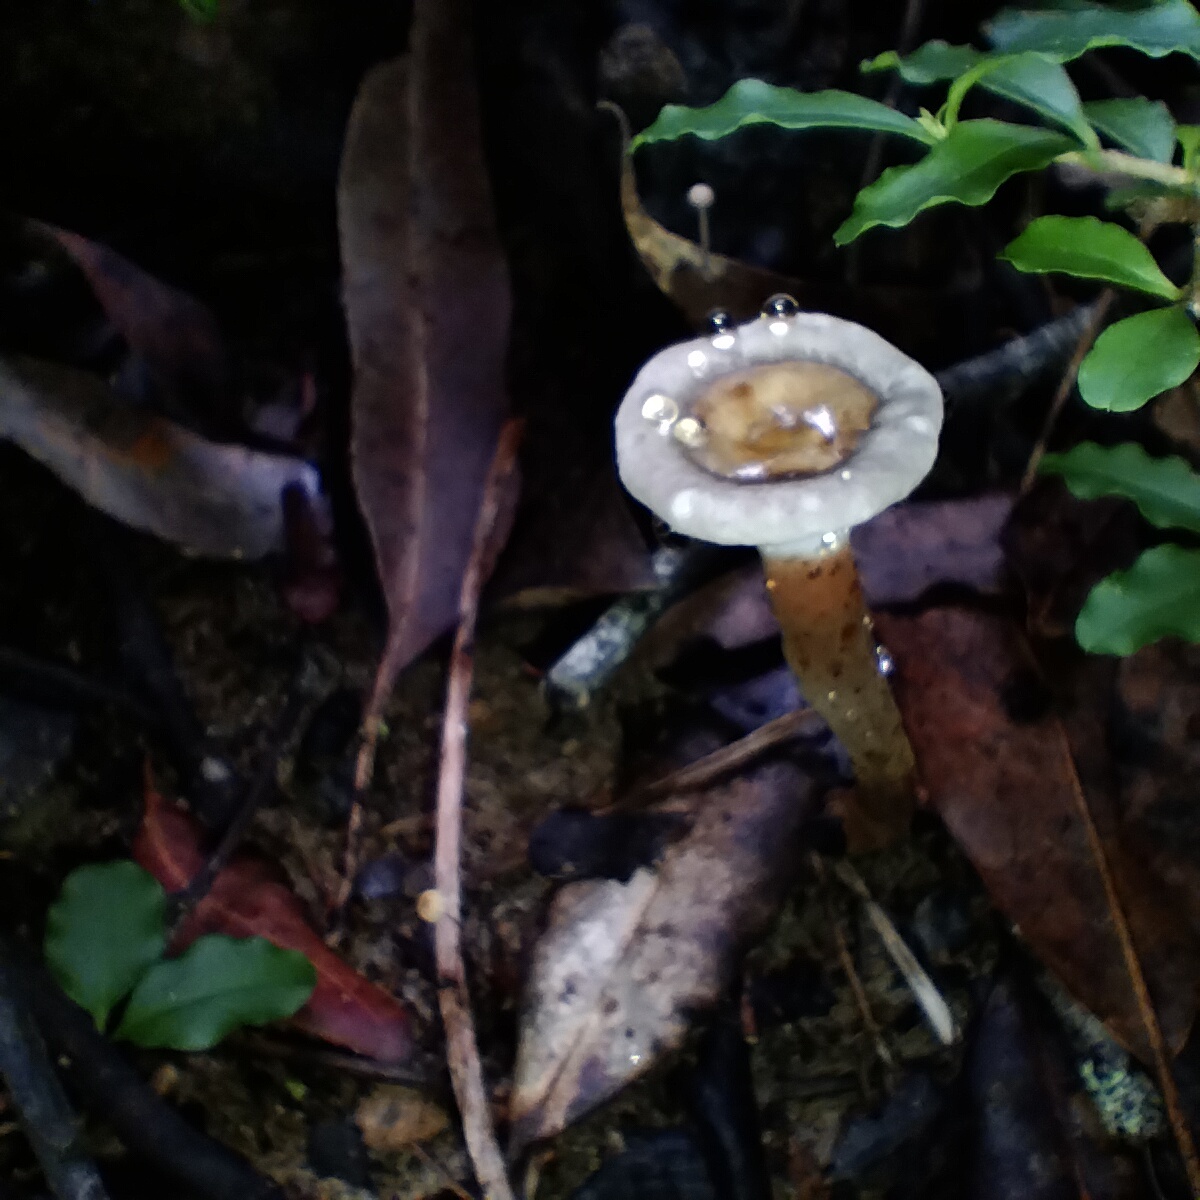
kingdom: Fungi
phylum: Basidiomycota
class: Agaricomycetes
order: Polyporales
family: Ganodermataceae
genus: Sanguinoderma
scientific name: Sanguinoderma rude
